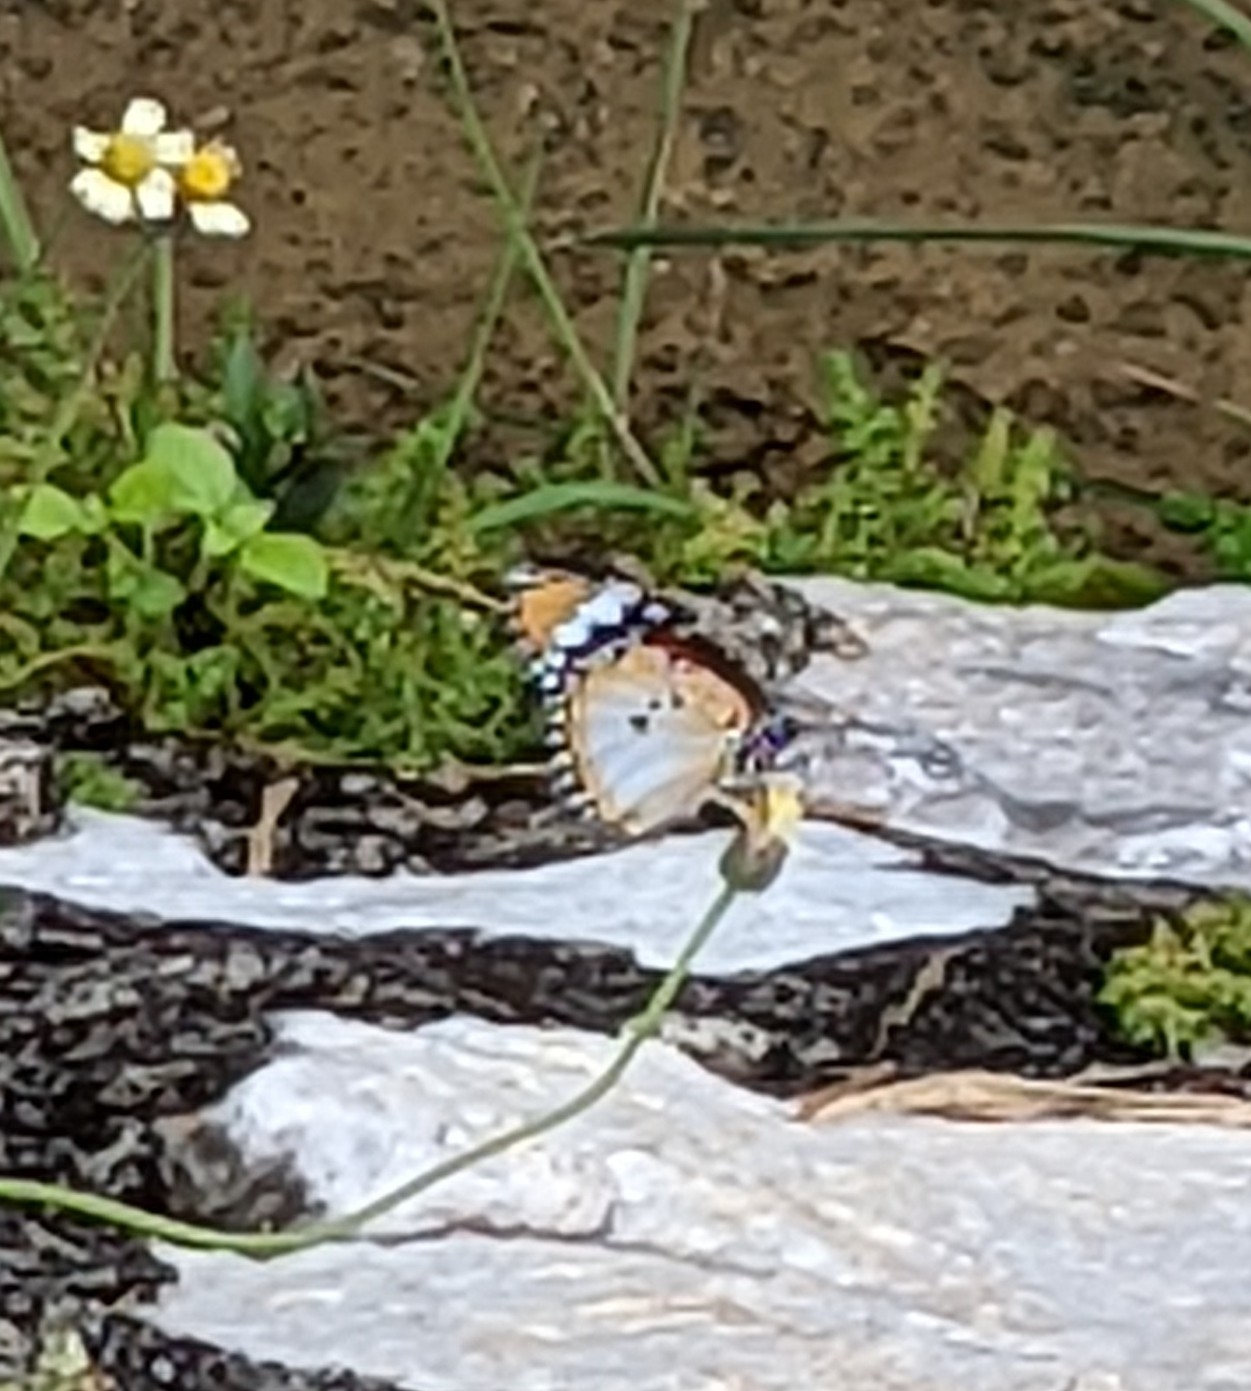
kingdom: Animalia
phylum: Arthropoda
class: Insecta
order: Lepidoptera
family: Nymphalidae
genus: Danaus
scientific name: Danaus chrysippus
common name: Plain tiger
